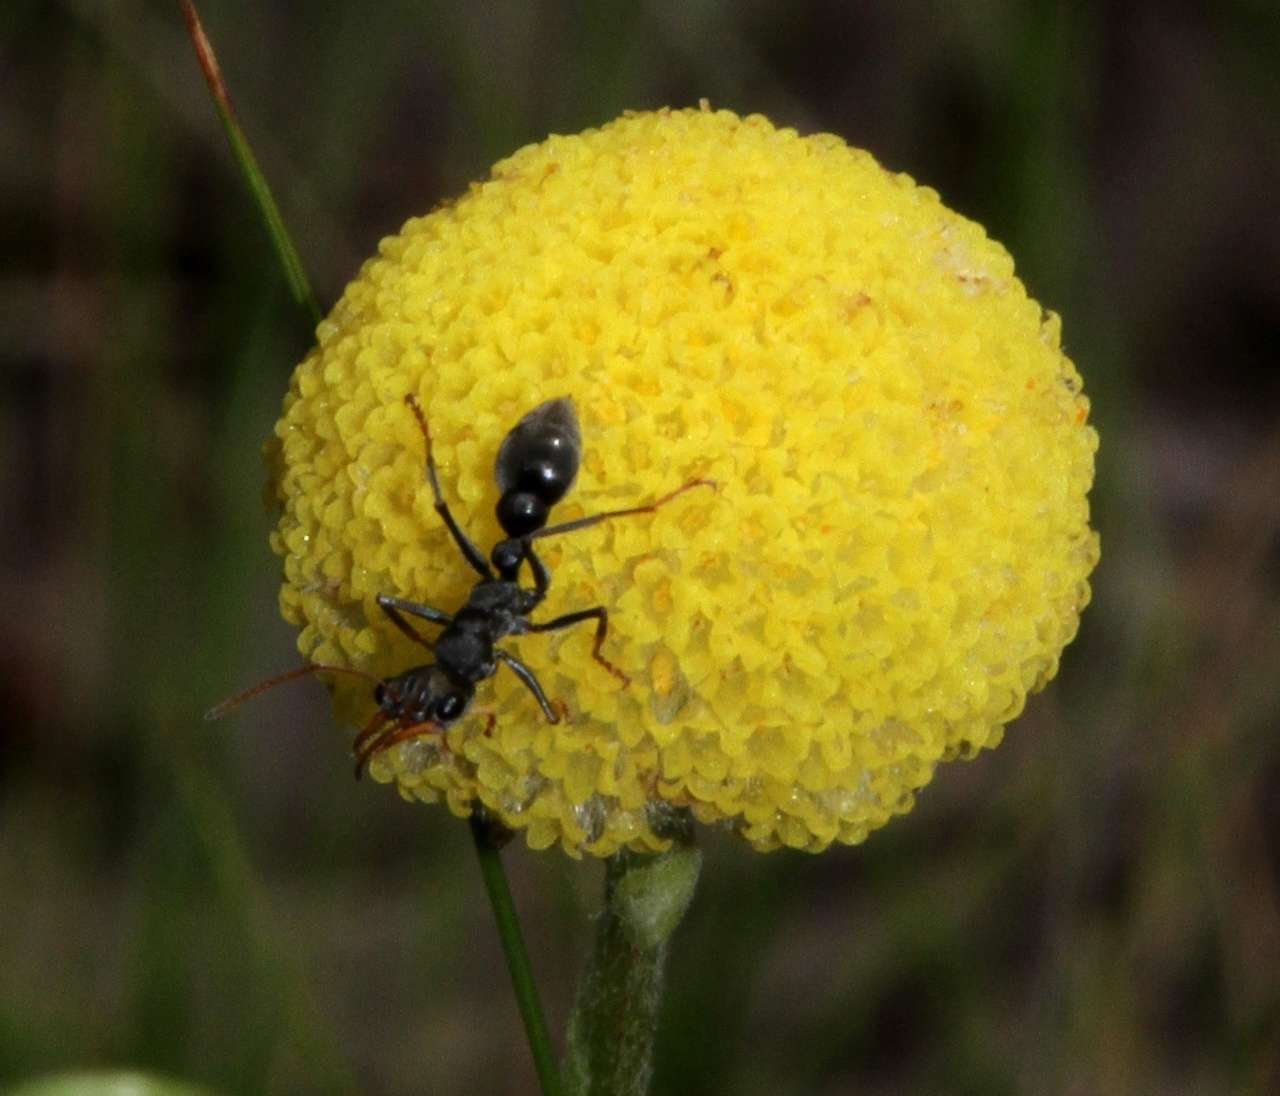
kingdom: Animalia
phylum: Arthropoda
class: Insecta
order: Hymenoptera
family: Formicidae
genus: Myrmecia
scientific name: Myrmecia pilosula
